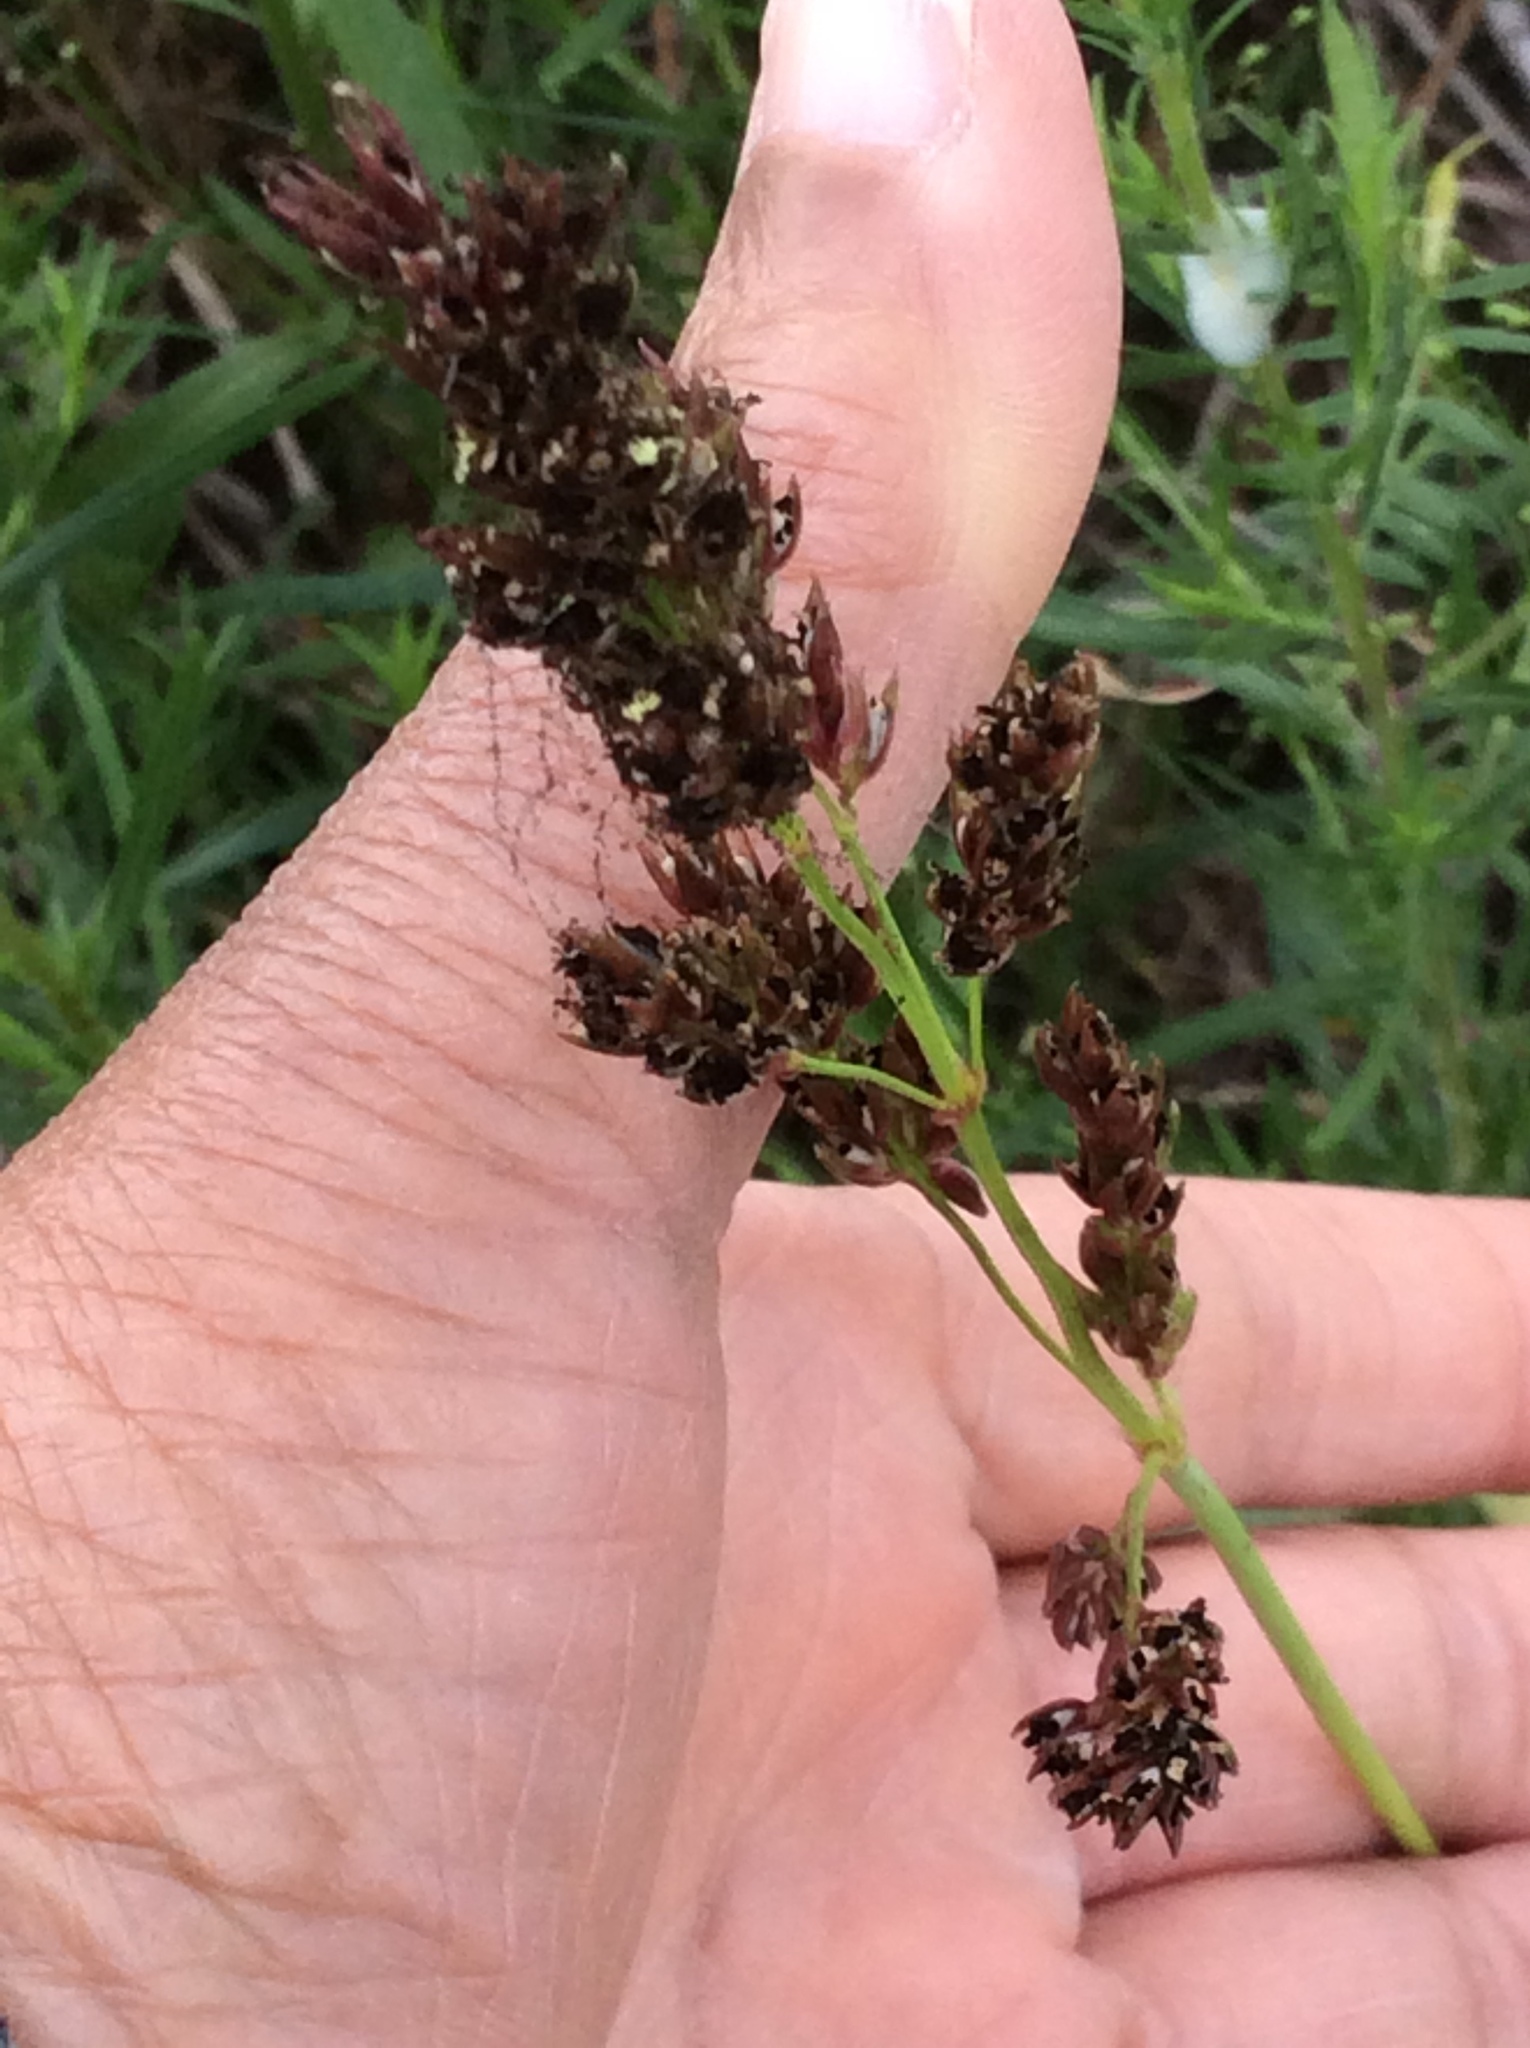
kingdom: Plantae
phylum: Tracheophyta
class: Liliopsida
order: Poales
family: Poaceae
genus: Sorghum
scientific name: Sorghum halepense
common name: Johnson-grass
